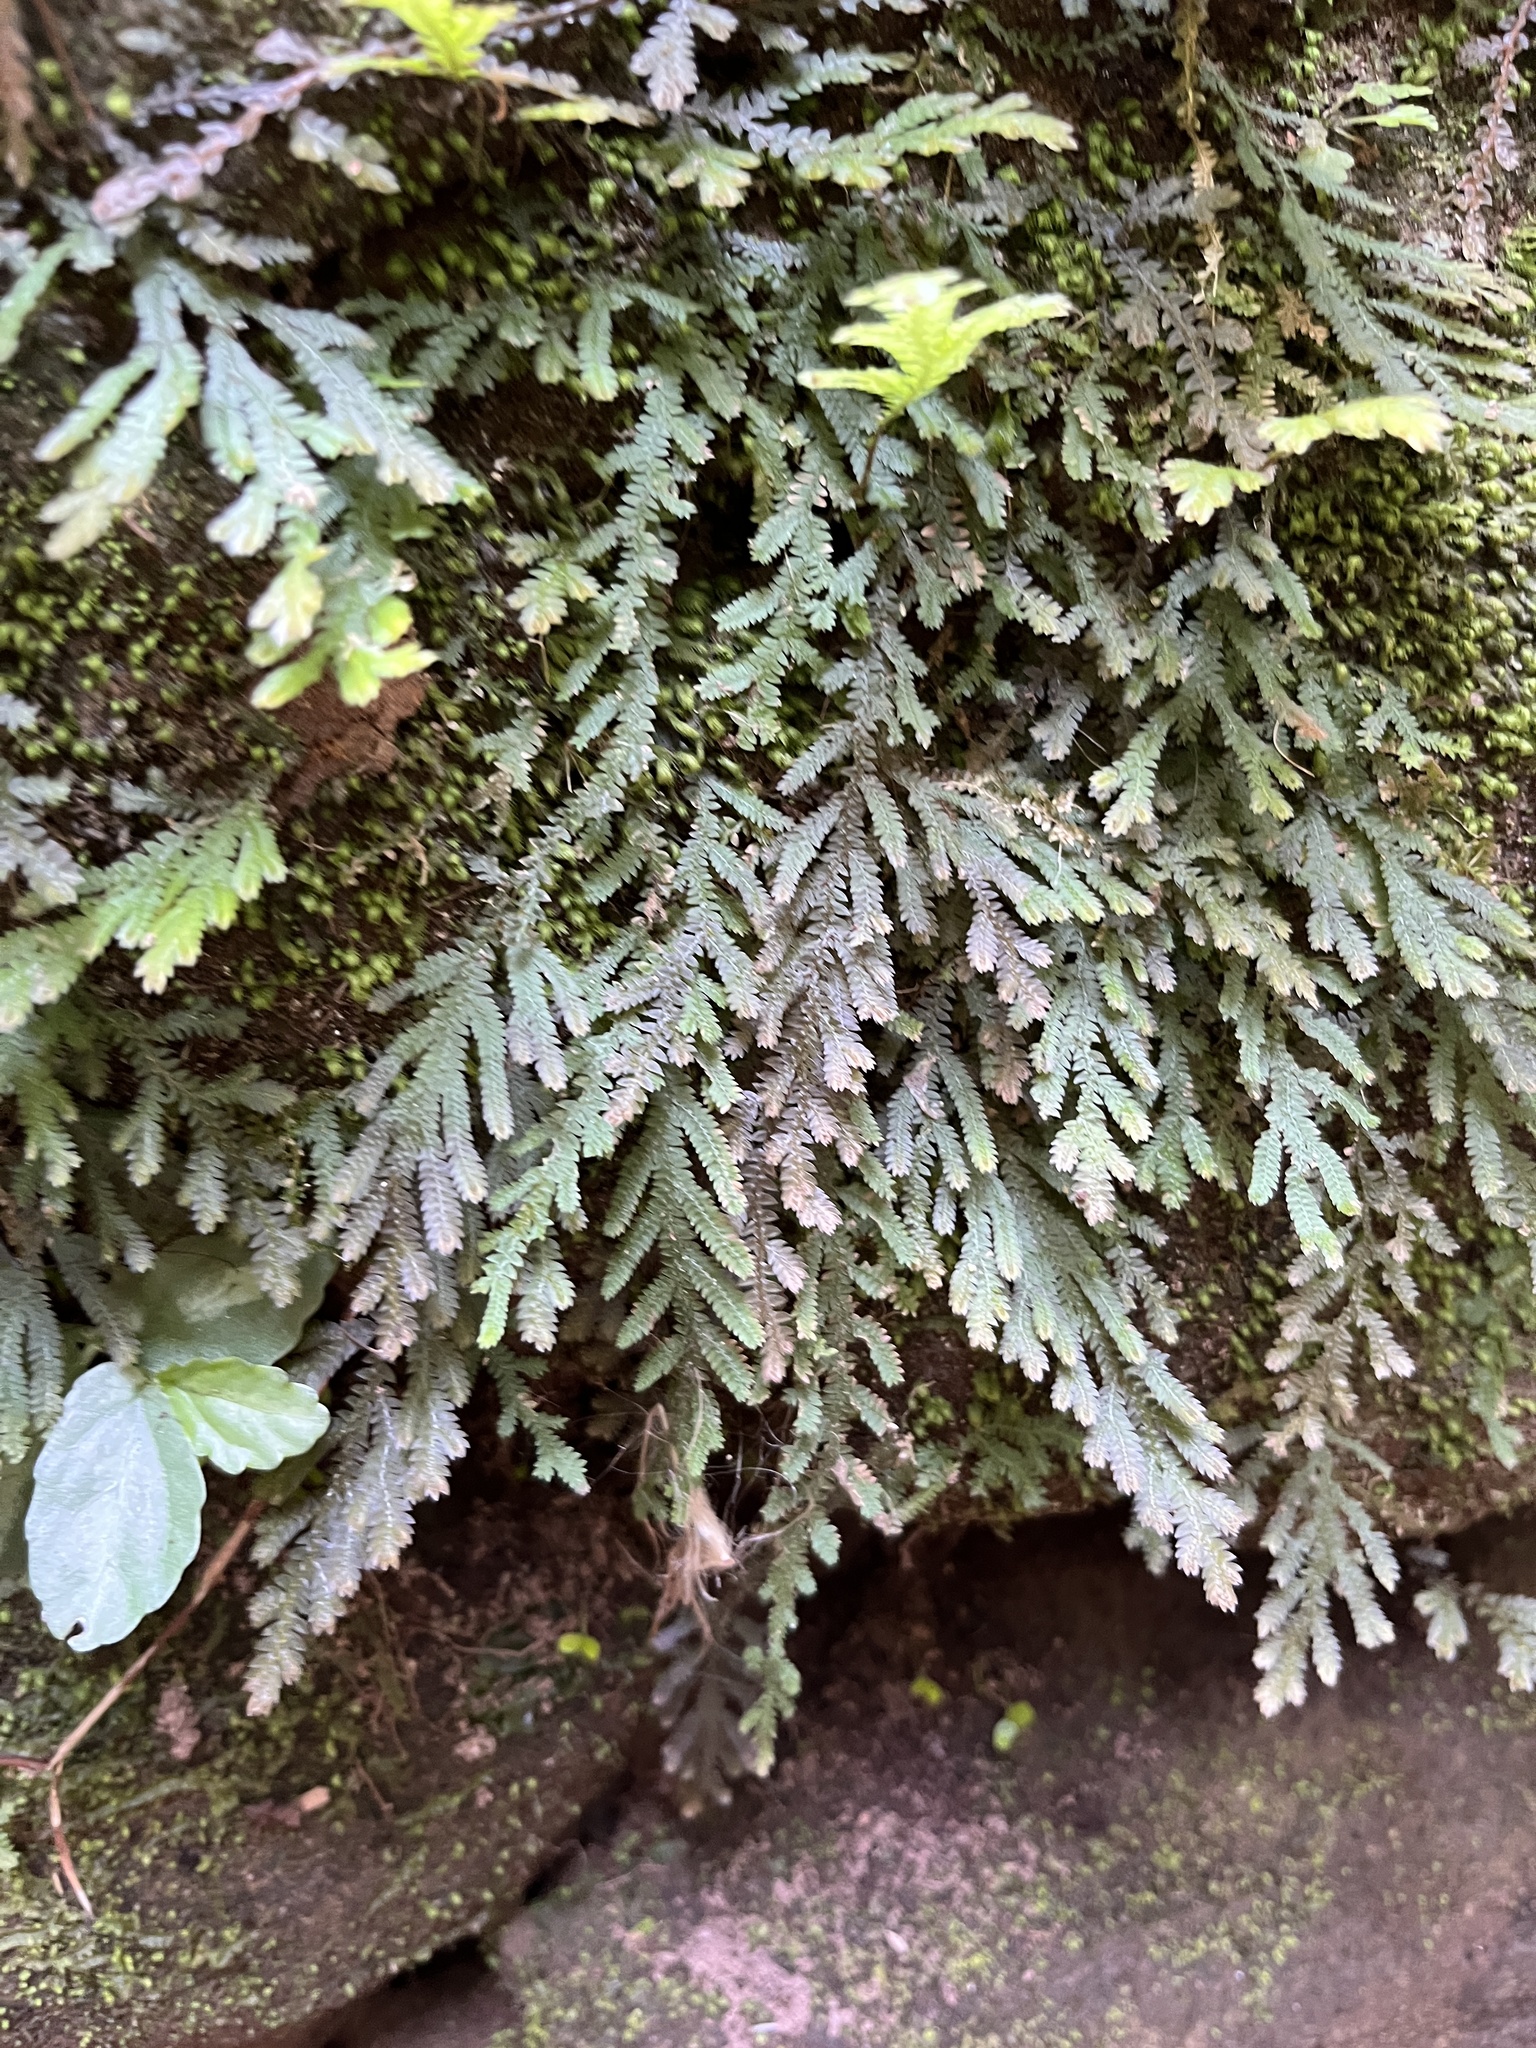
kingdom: Plantae
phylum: Tracheophyta
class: Lycopodiopsida
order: Selaginellales
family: Selaginellaceae
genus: Selaginella
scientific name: Selaginella uncinata
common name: Blue spikemoss
